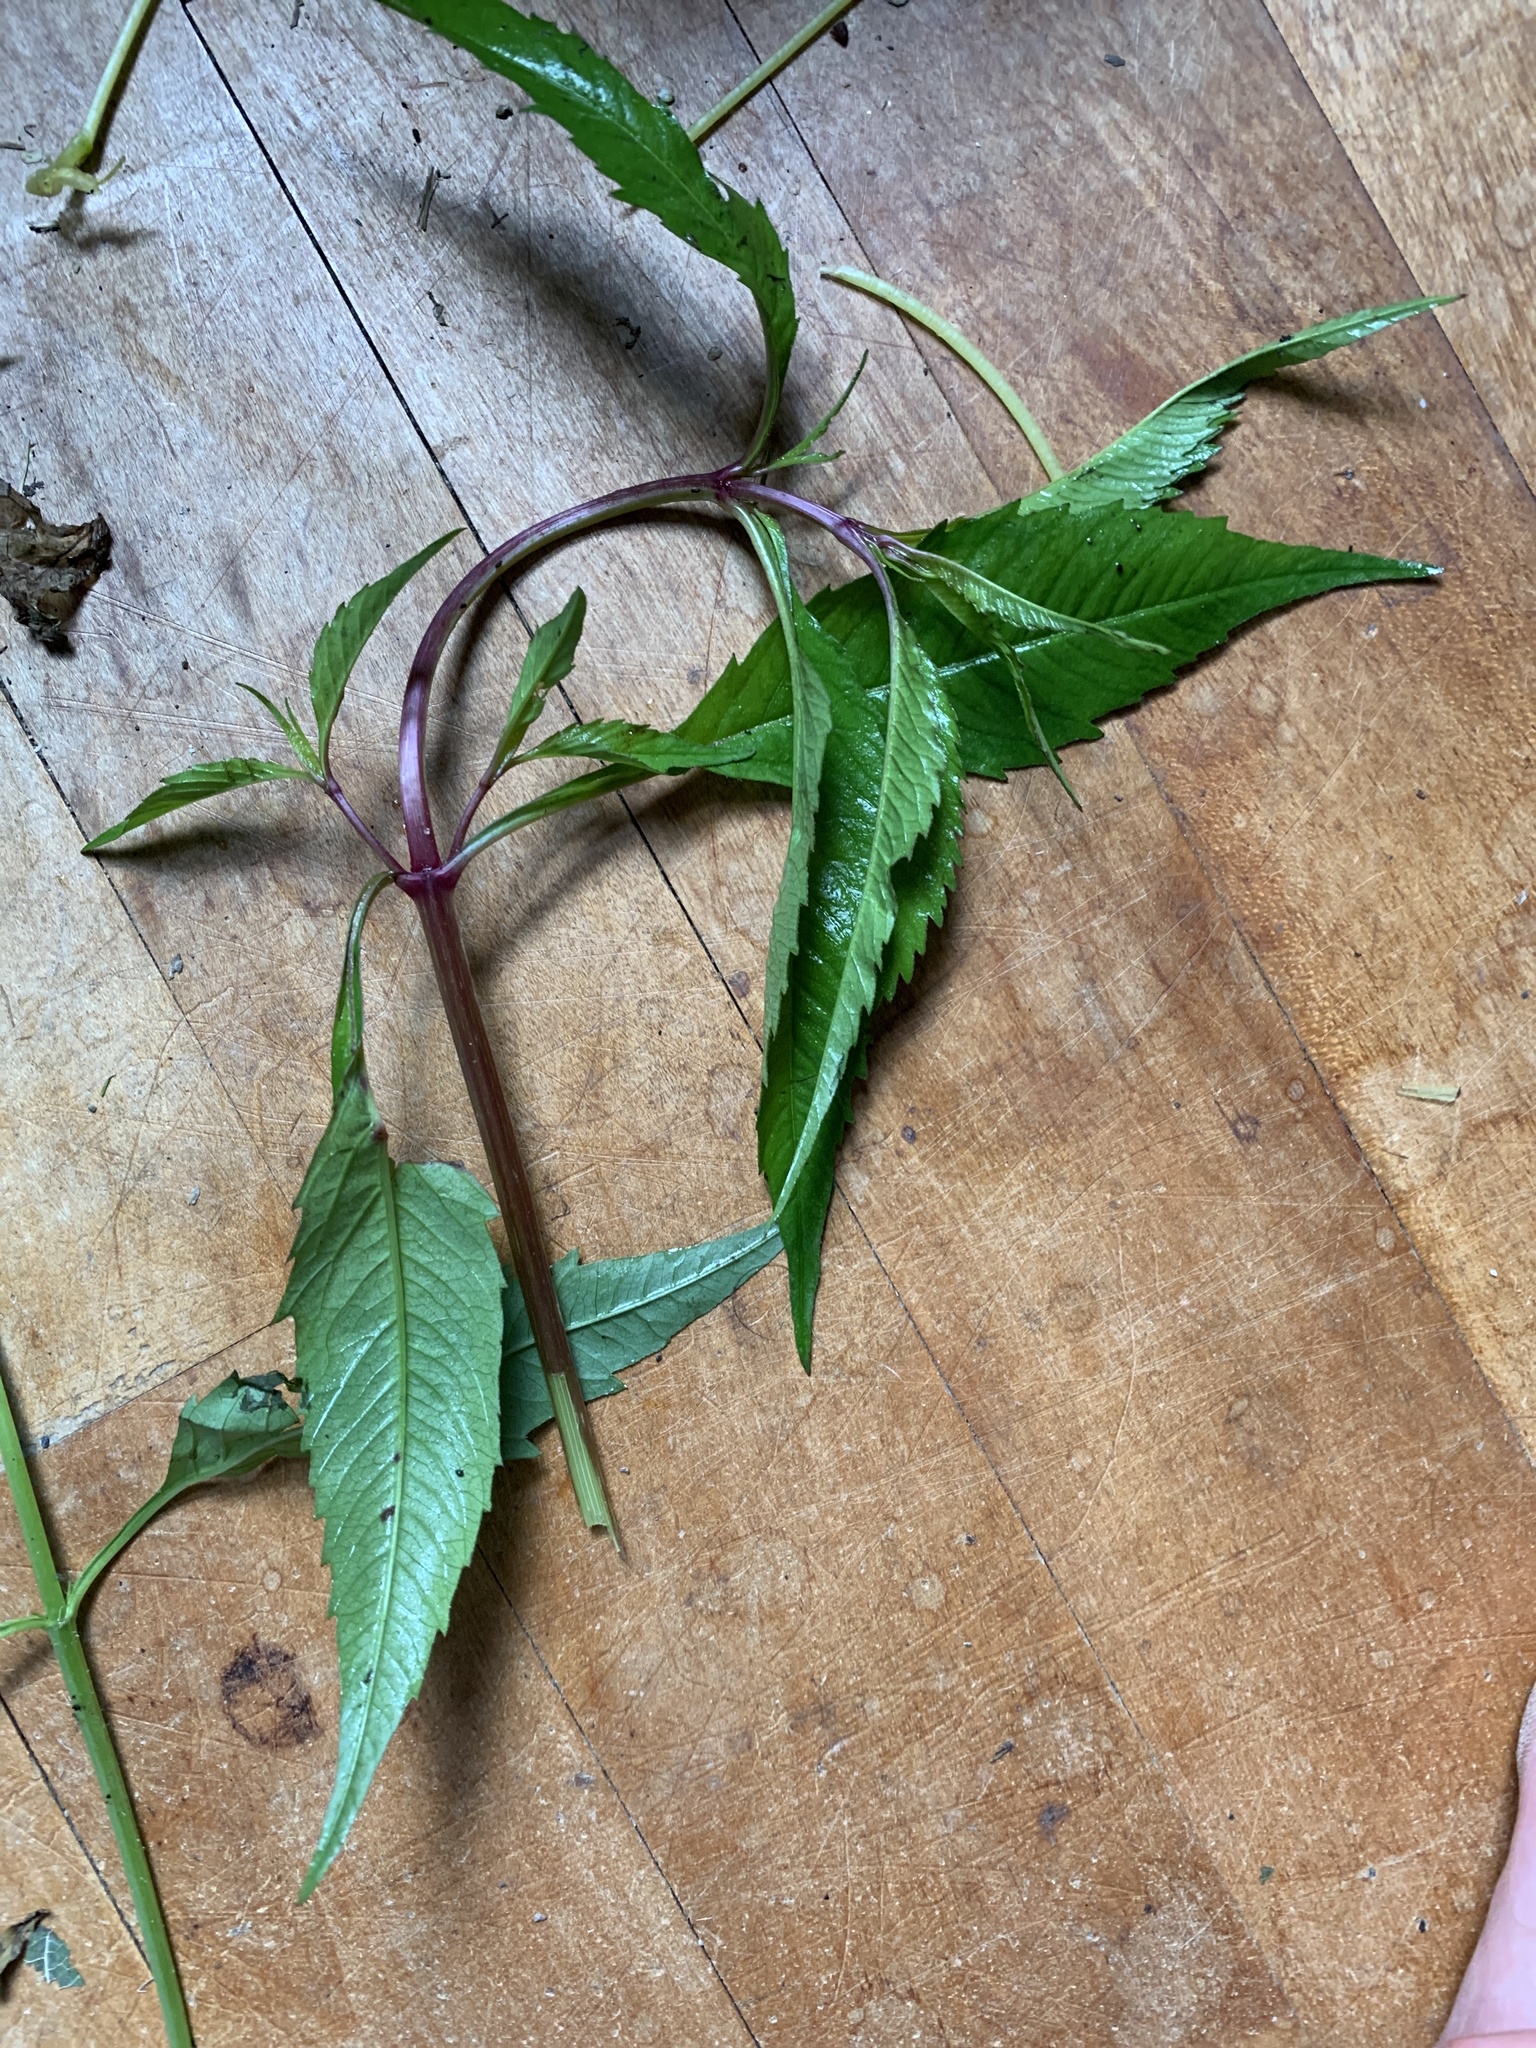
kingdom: Plantae
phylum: Tracheophyta
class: Magnoliopsida
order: Asterales
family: Asteraceae
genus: Bidens
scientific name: Bidens connata
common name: London bur-marigold
